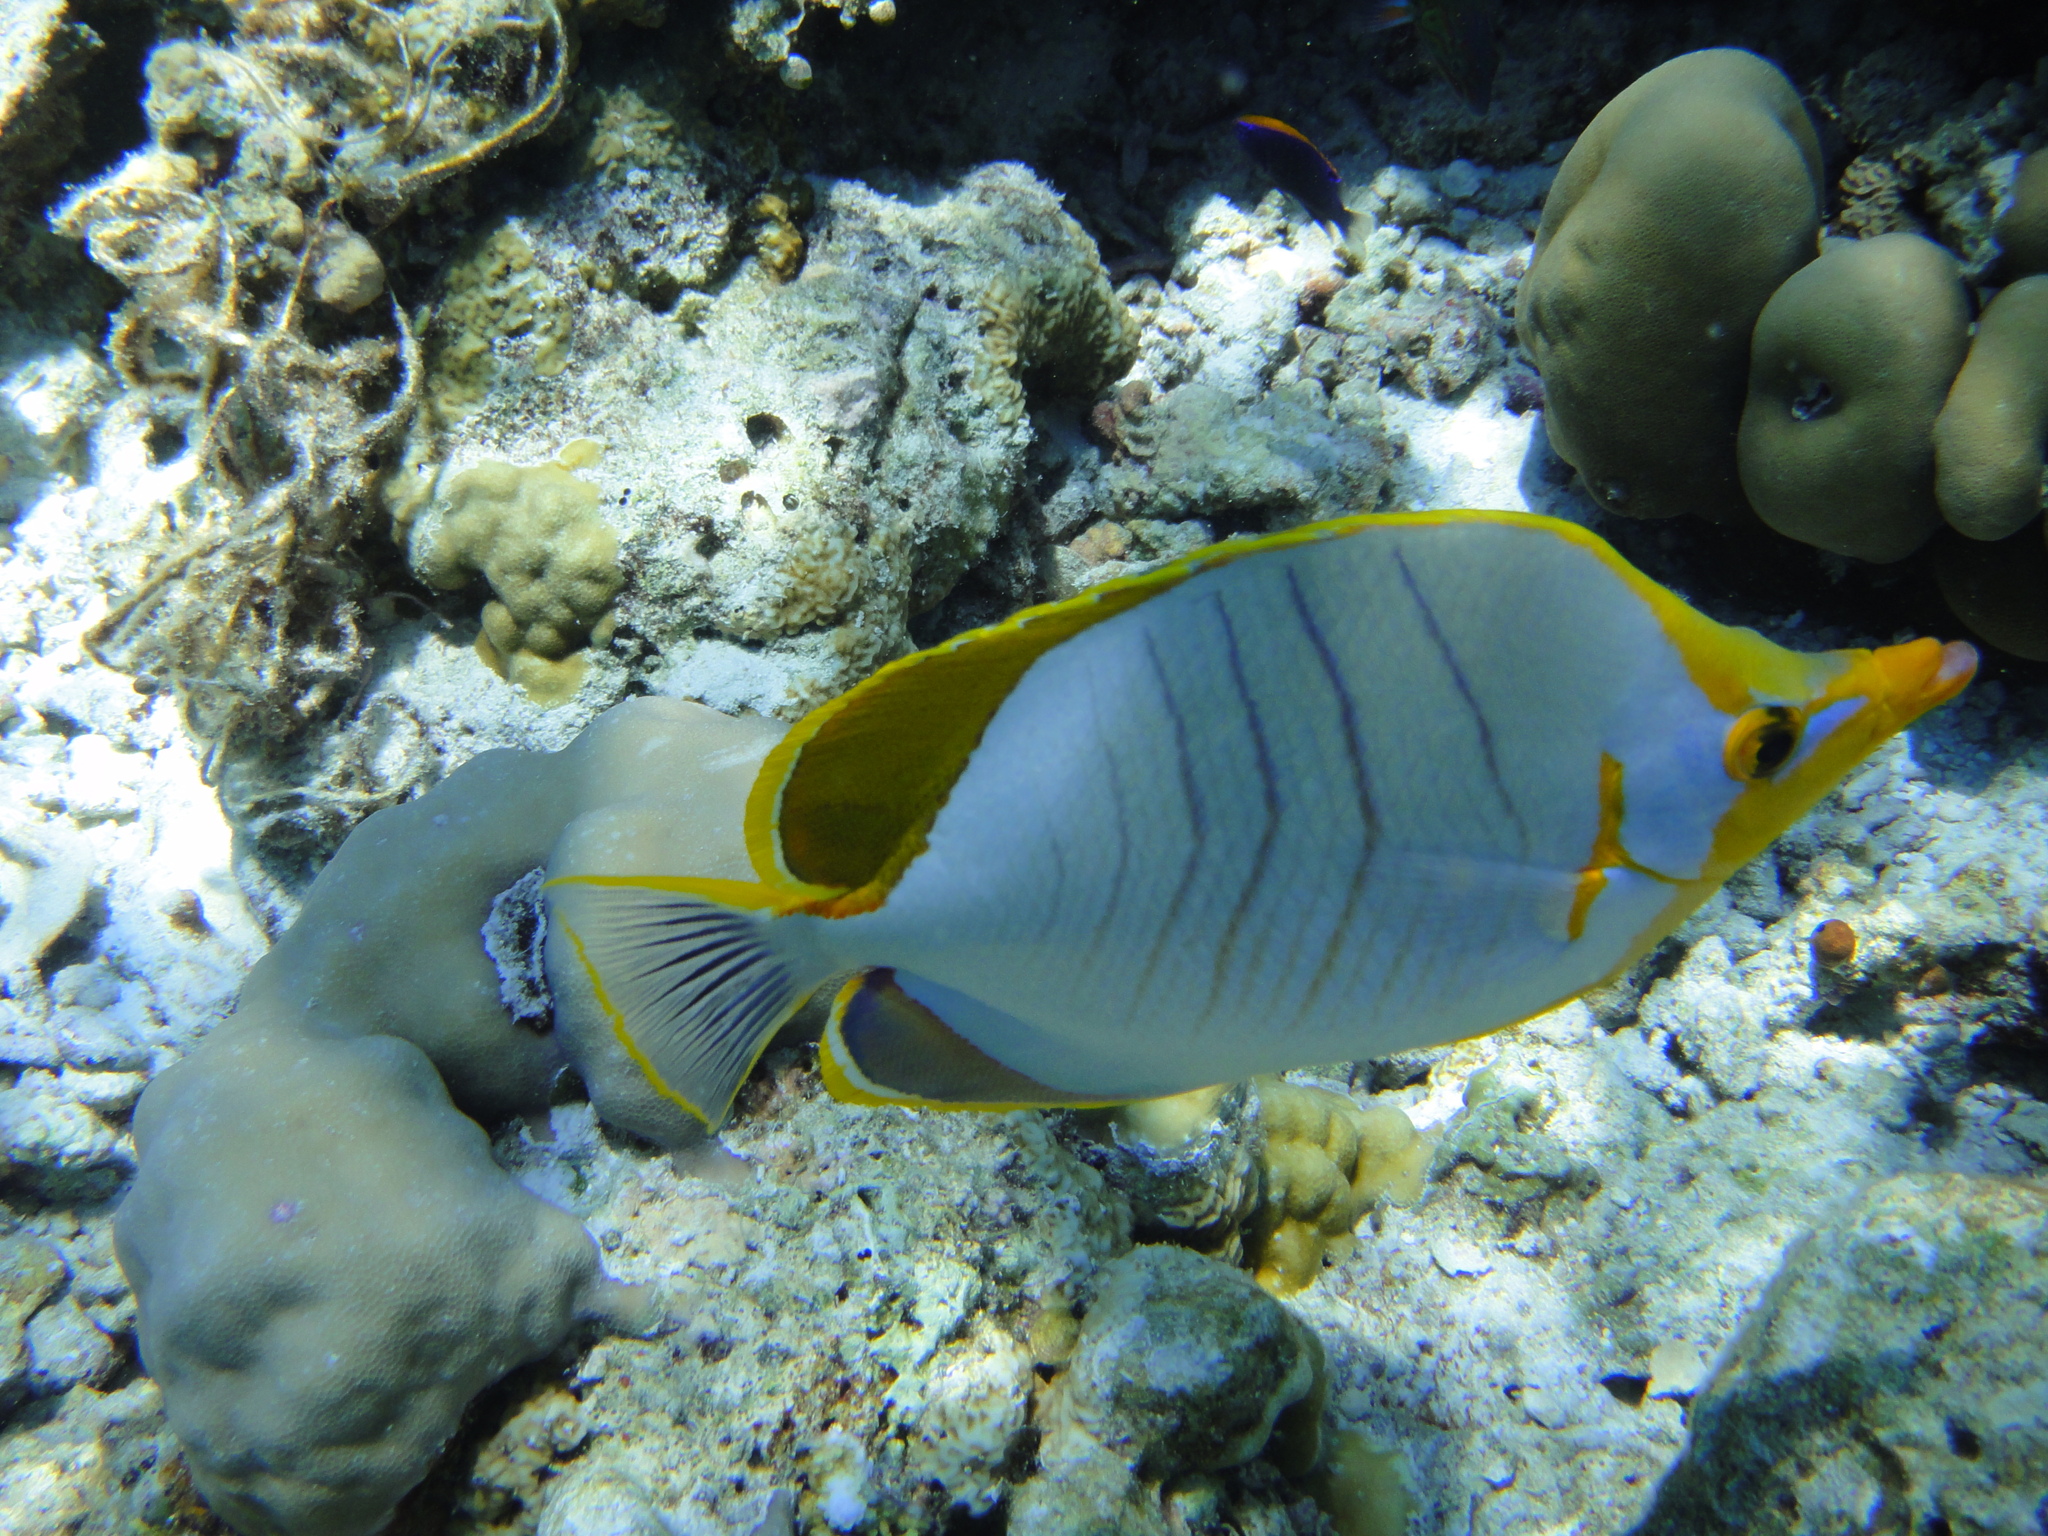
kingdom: Animalia
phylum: Chordata
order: Perciformes
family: Chaetodontidae
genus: Chaetodon
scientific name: Chaetodon xanthocephalus
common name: Yellowhead butterflyfish
